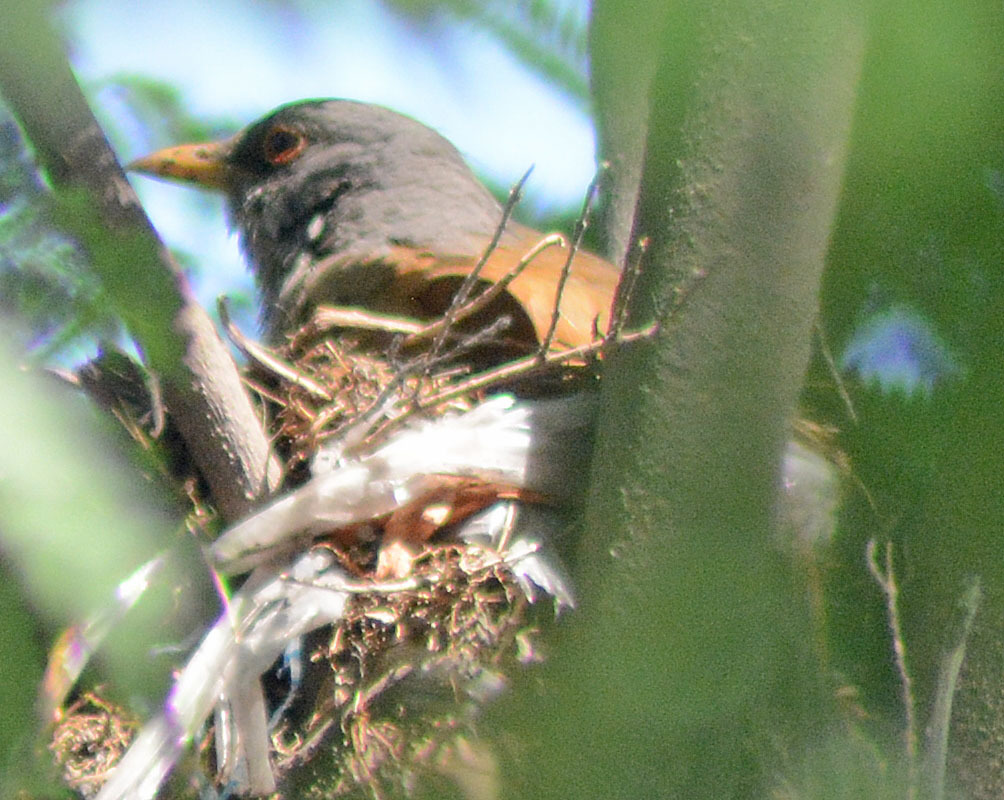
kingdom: Animalia
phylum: Chordata
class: Aves
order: Passeriformes
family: Turdidae
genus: Turdus
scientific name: Turdus rufopalliatus
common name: Rufous-backed robin
